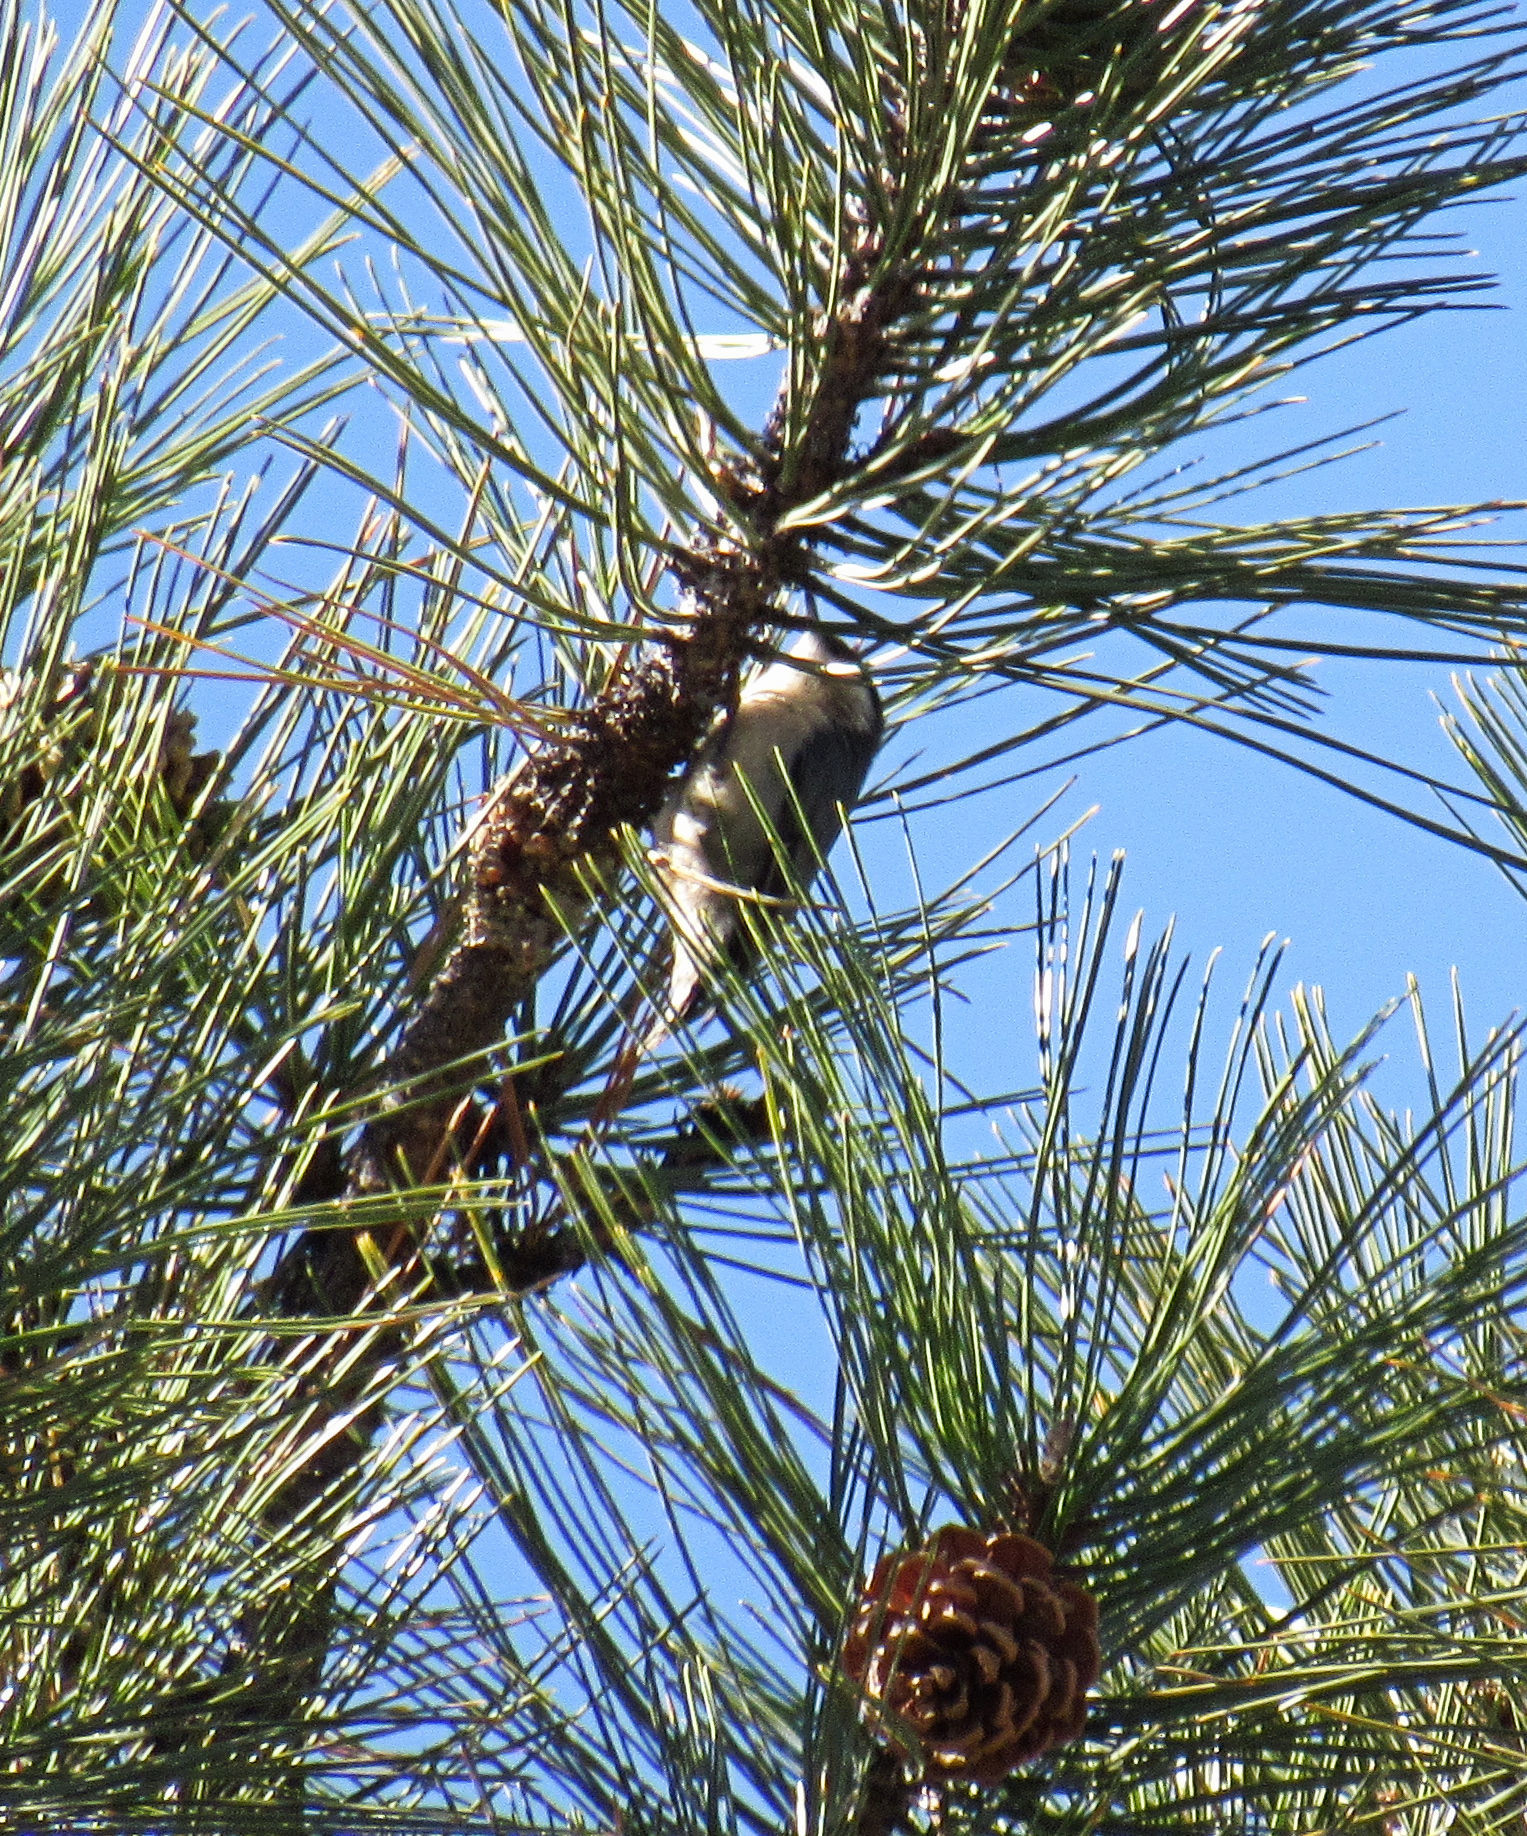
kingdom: Animalia
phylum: Chordata
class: Aves
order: Passeriformes
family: Sittidae
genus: Sitta
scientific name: Sitta pygmaea
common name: Pygmy nuthatch
